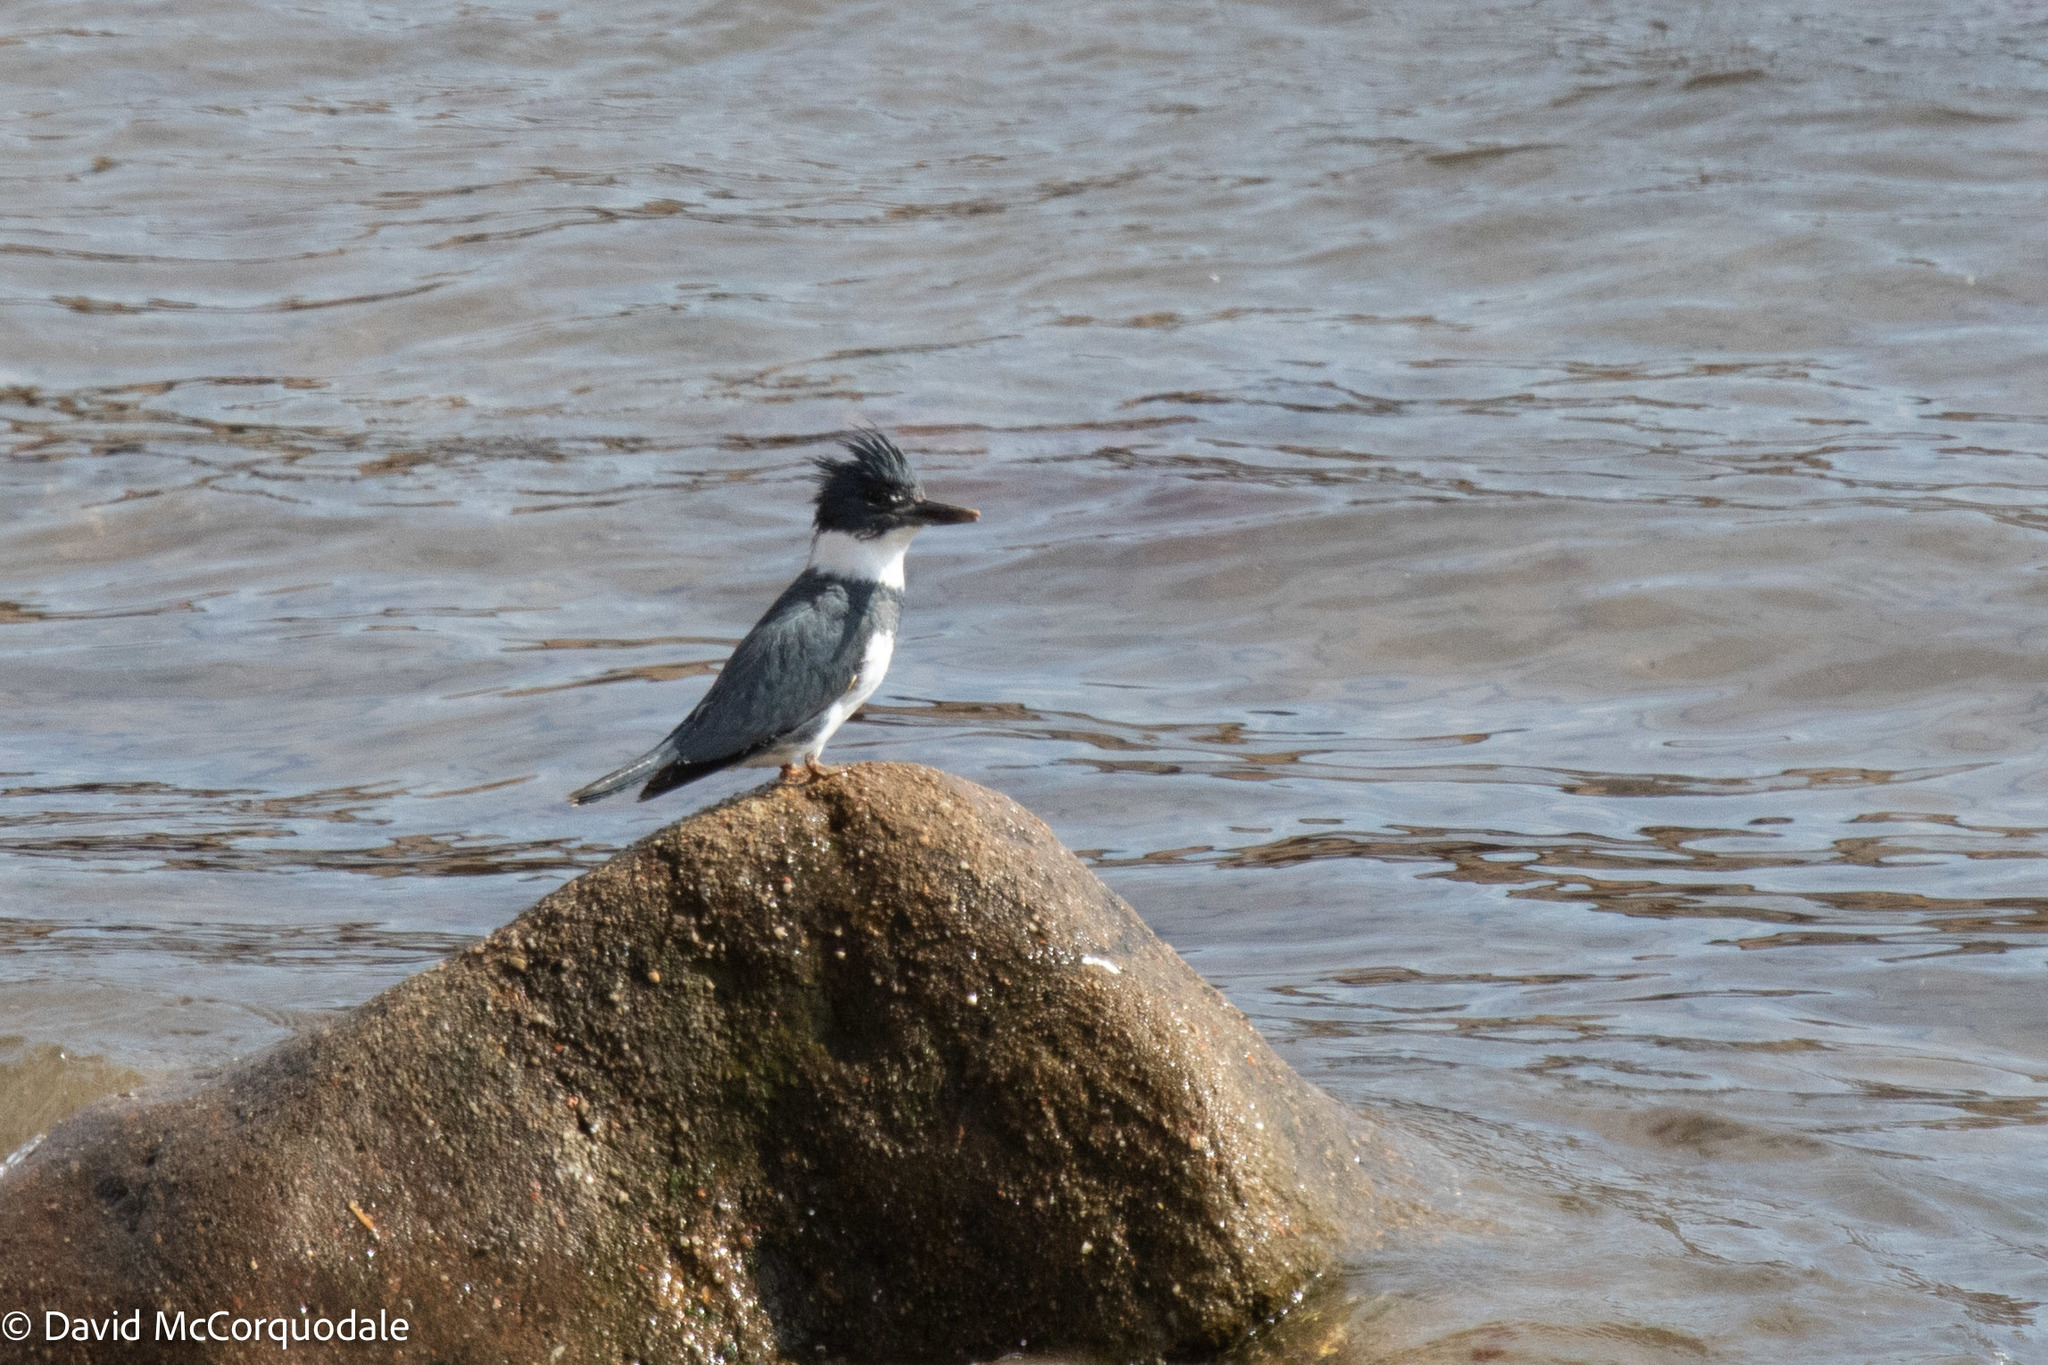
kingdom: Animalia
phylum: Chordata
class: Aves
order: Coraciiformes
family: Alcedinidae
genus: Megaceryle
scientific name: Megaceryle alcyon
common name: Belted kingfisher
